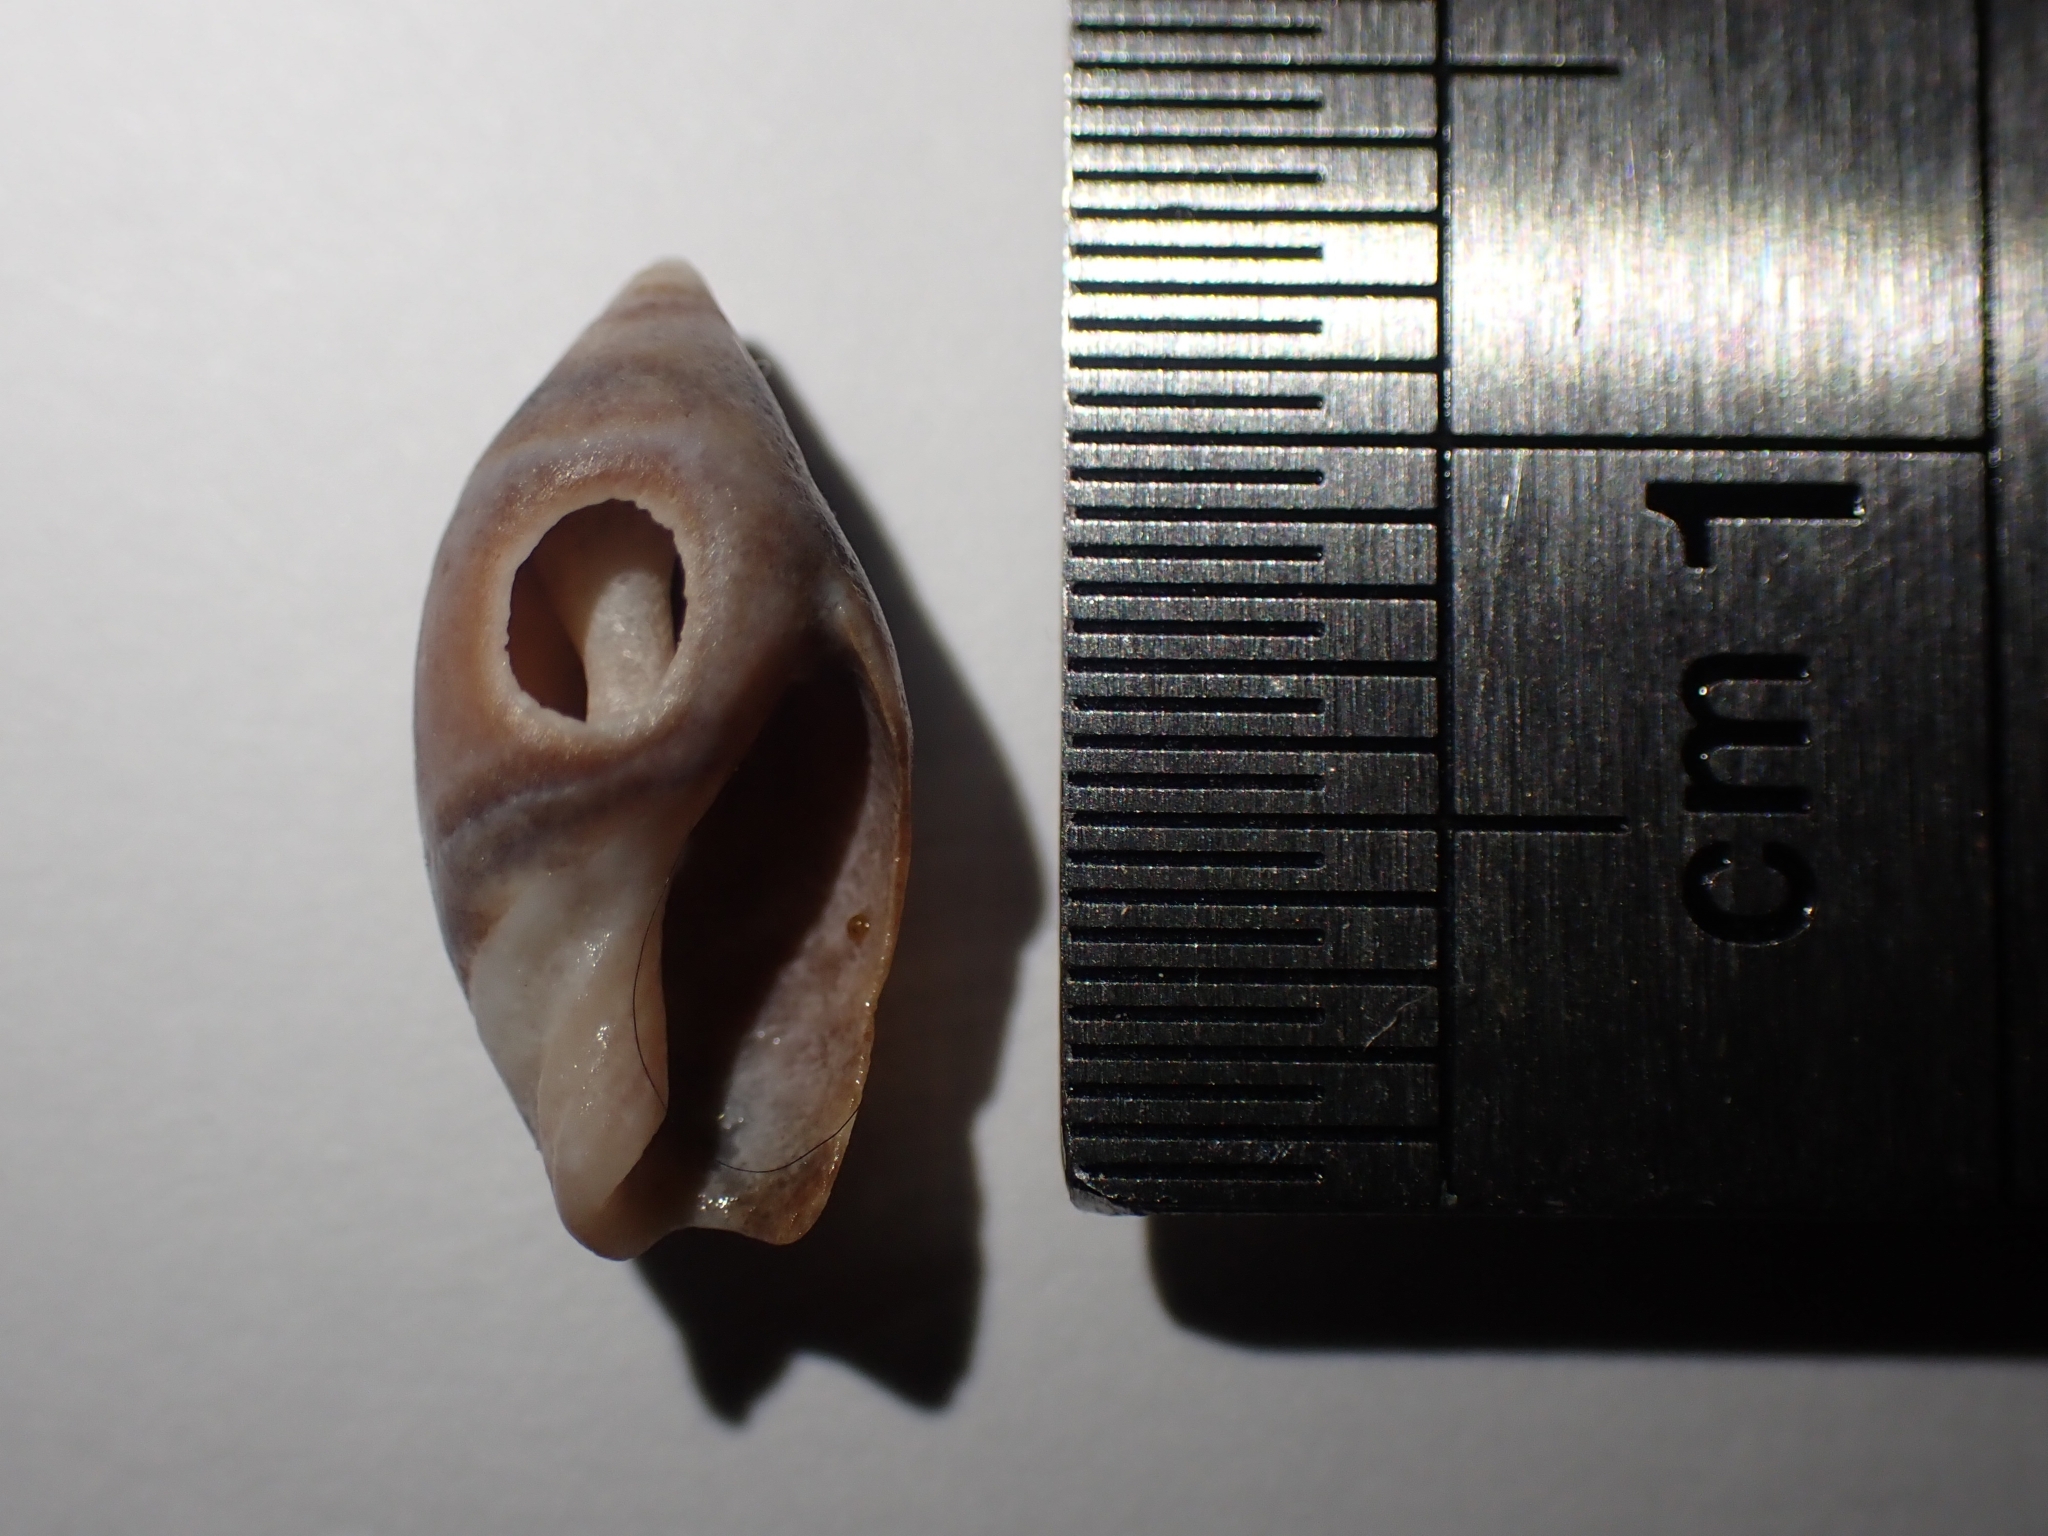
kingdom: Animalia
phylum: Mollusca
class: Gastropoda
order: Neogastropoda
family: Ancillariidae
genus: Amalda
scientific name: Amalda australis
